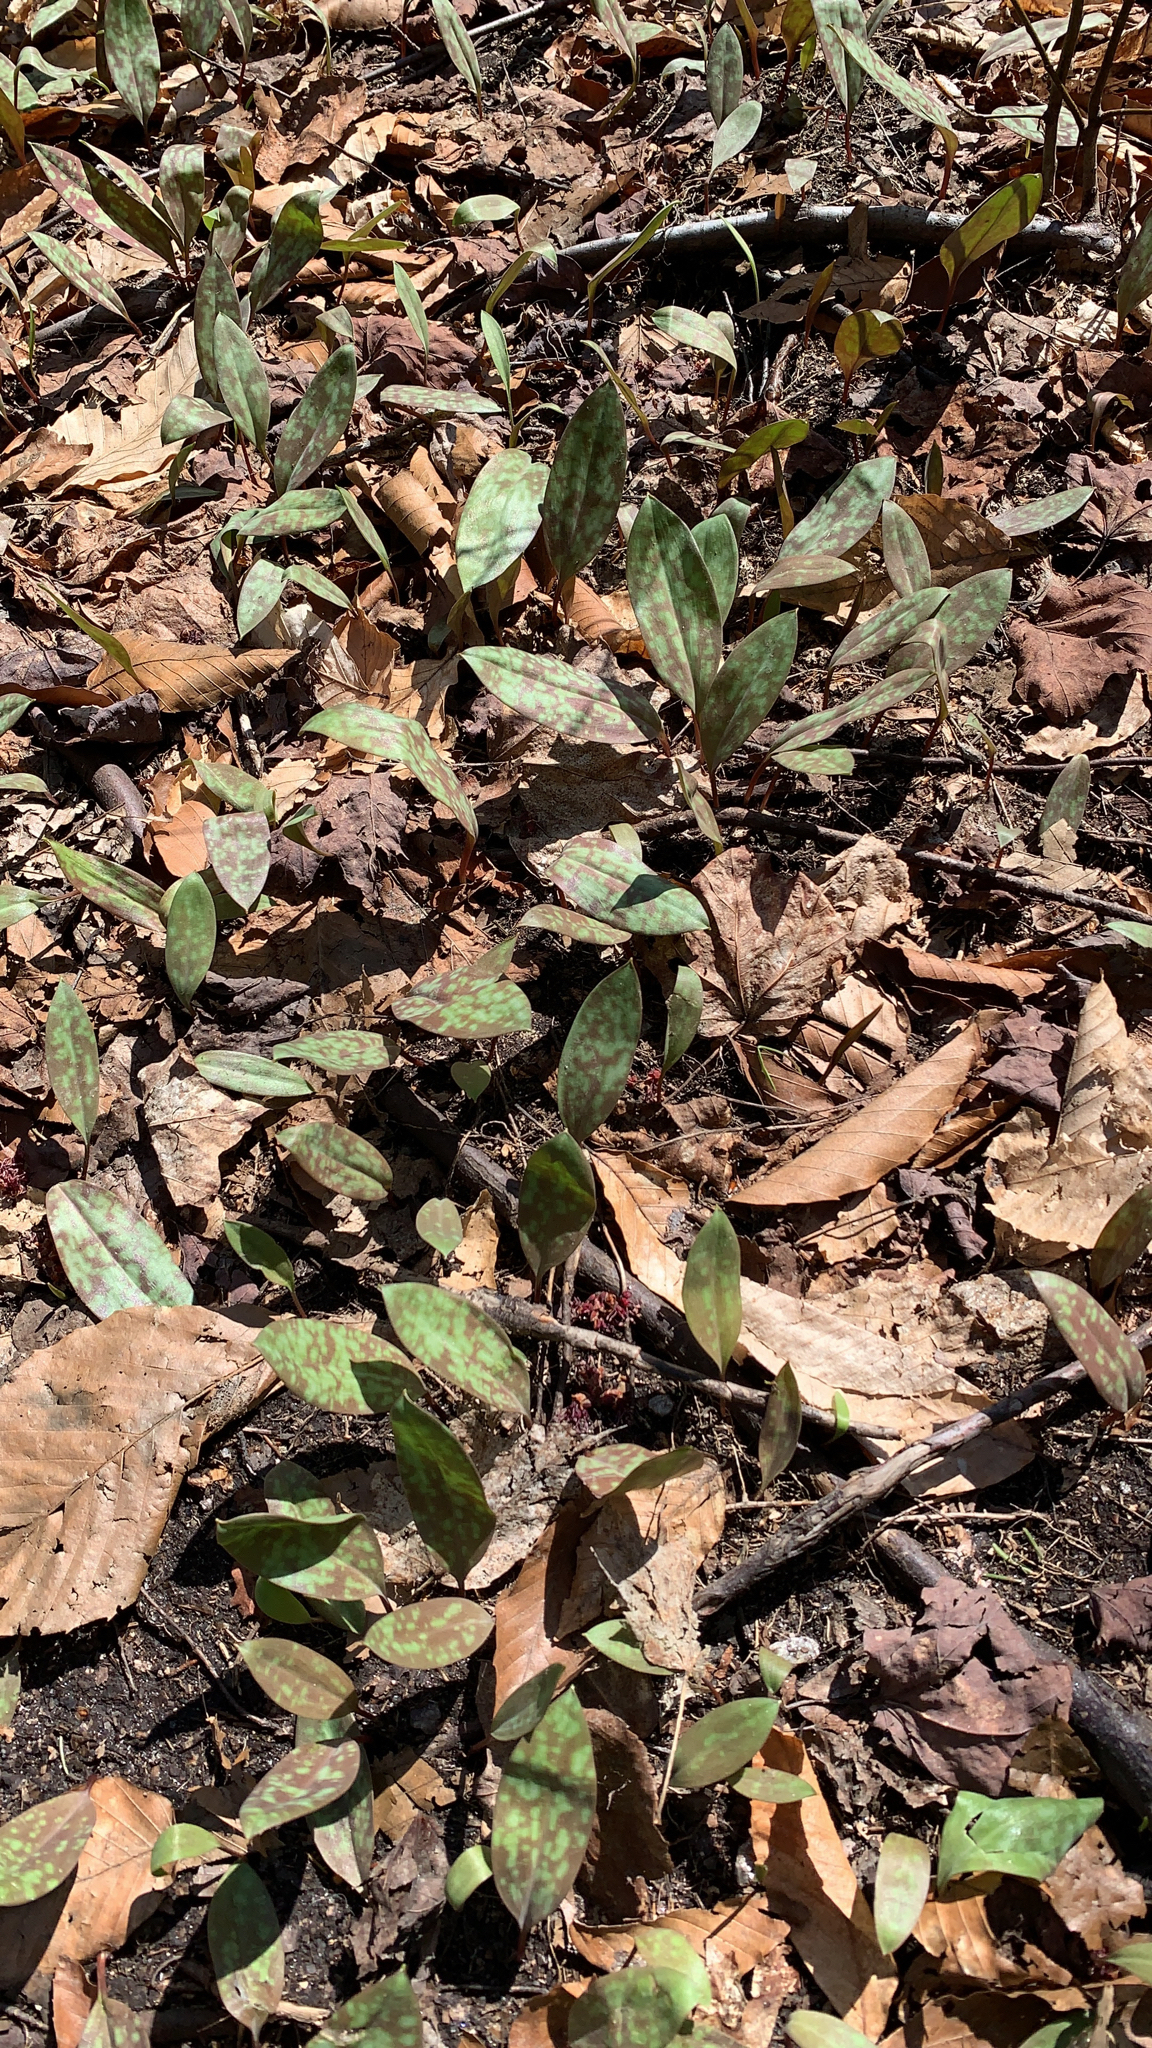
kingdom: Plantae
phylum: Tracheophyta
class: Liliopsida
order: Liliales
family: Liliaceae
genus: Erythronium
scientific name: Erythronium americanum
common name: Yellow adder's-tongue
